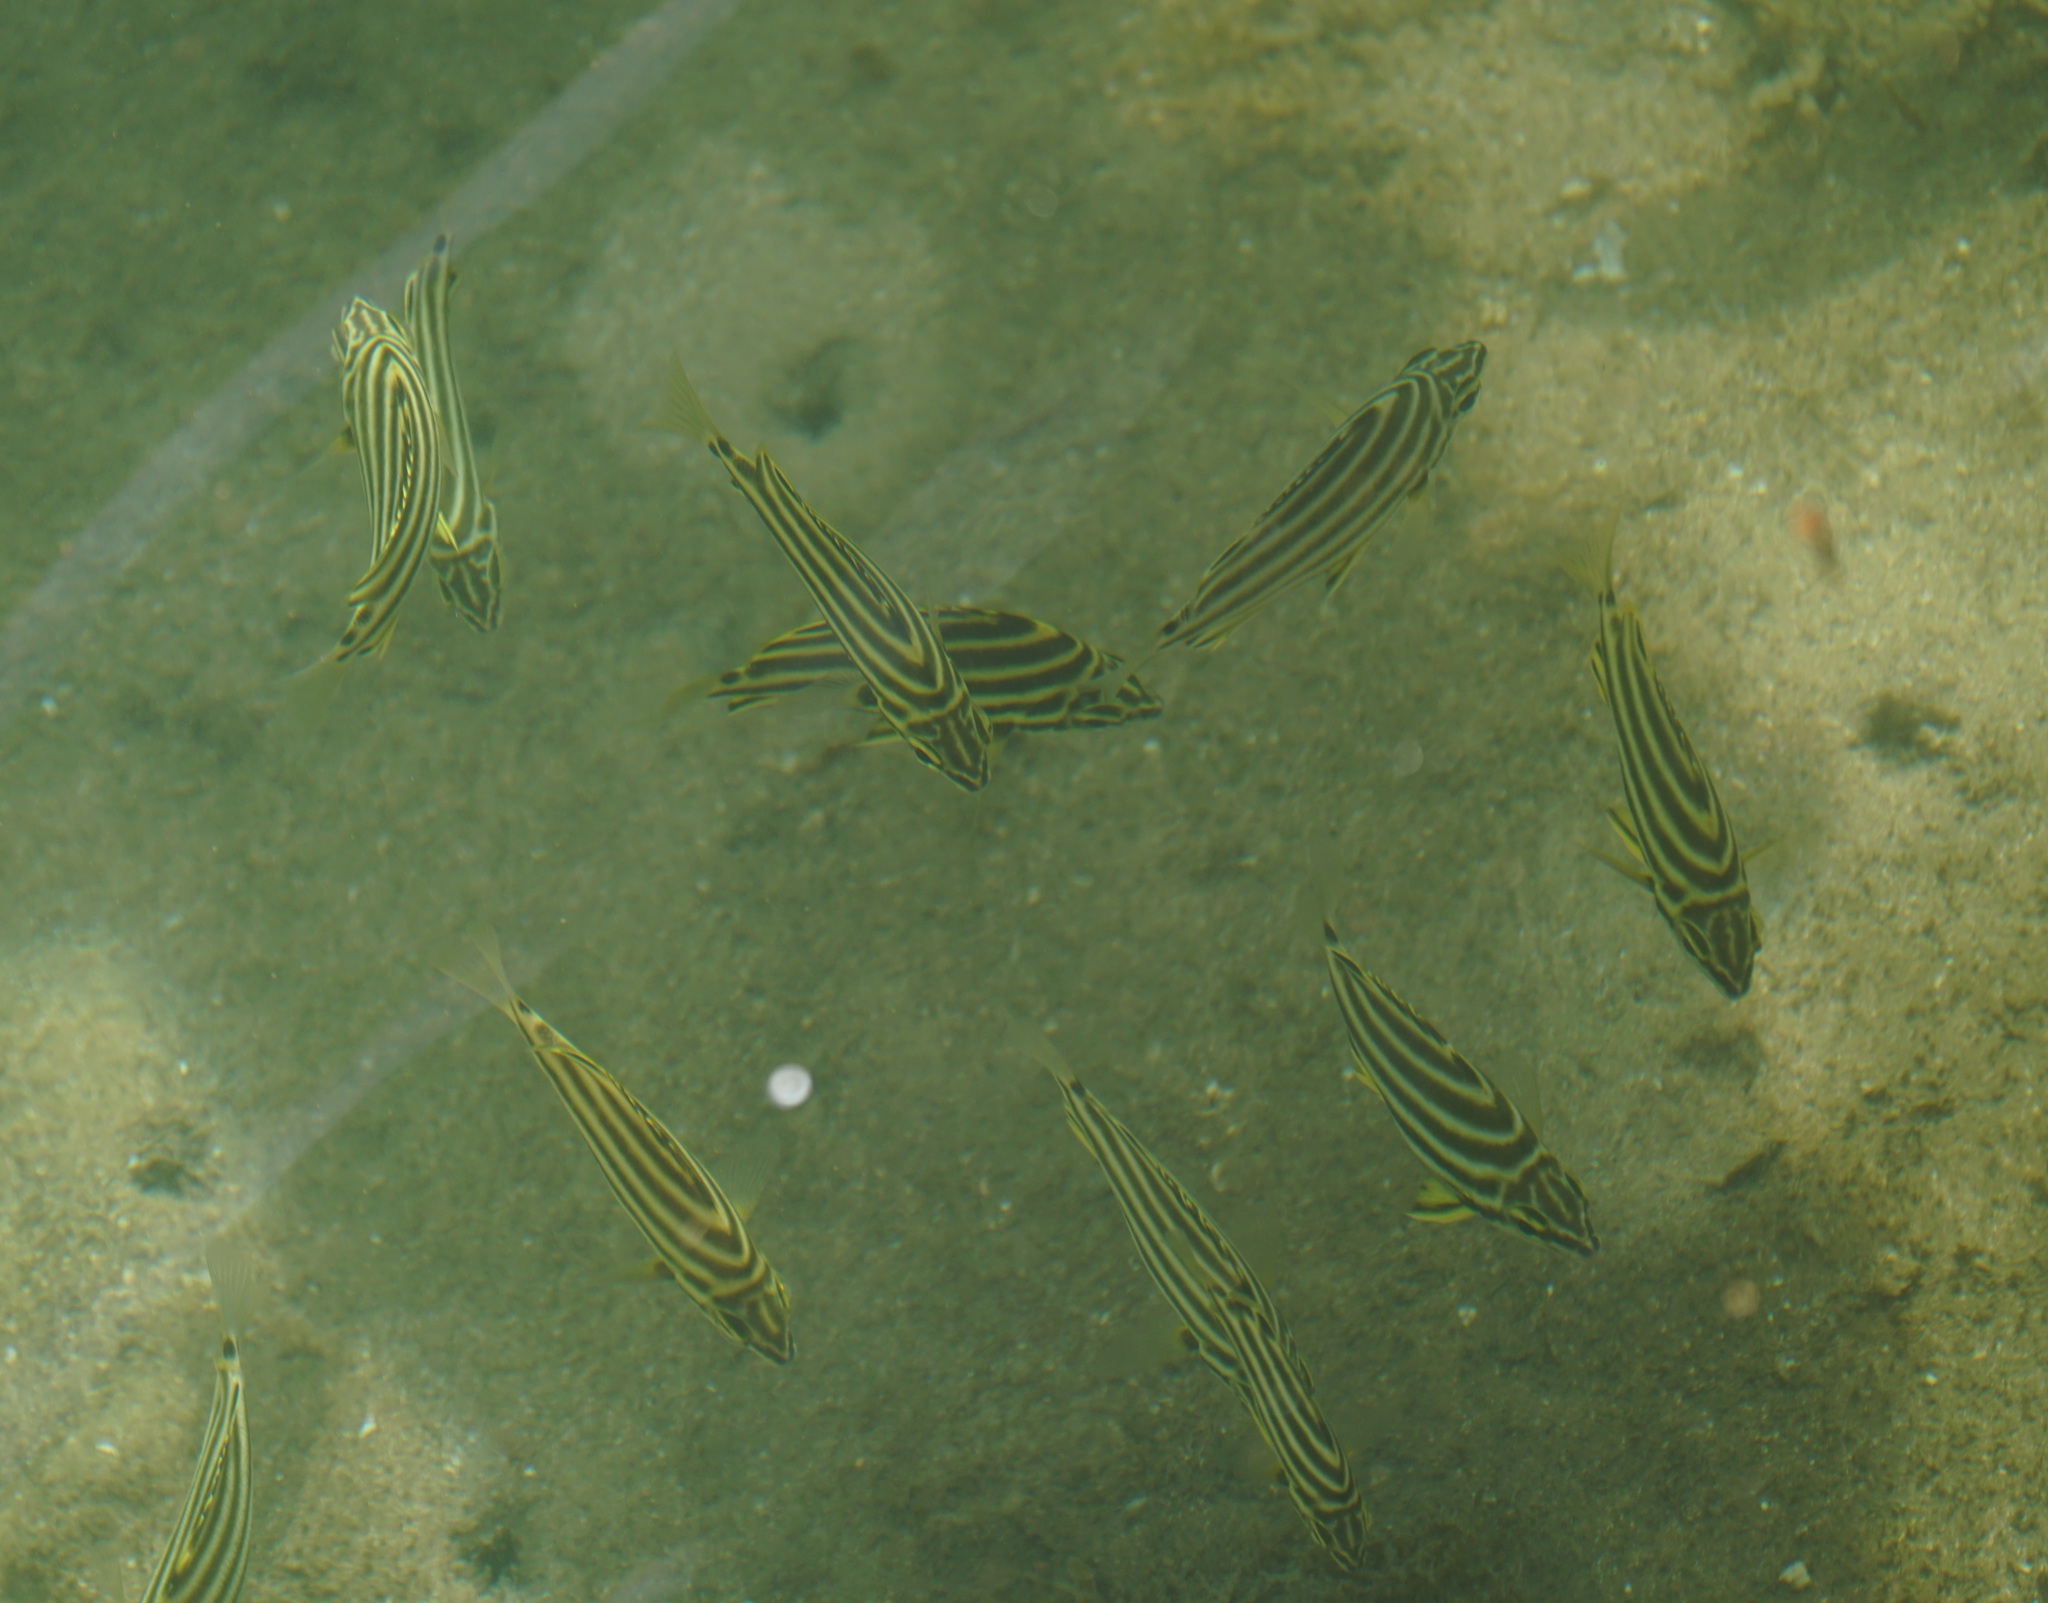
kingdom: Animalia
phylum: Chordata
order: Perciformes
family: Kyphosidae
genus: Microcanthus
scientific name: Microcanthus joyceae
